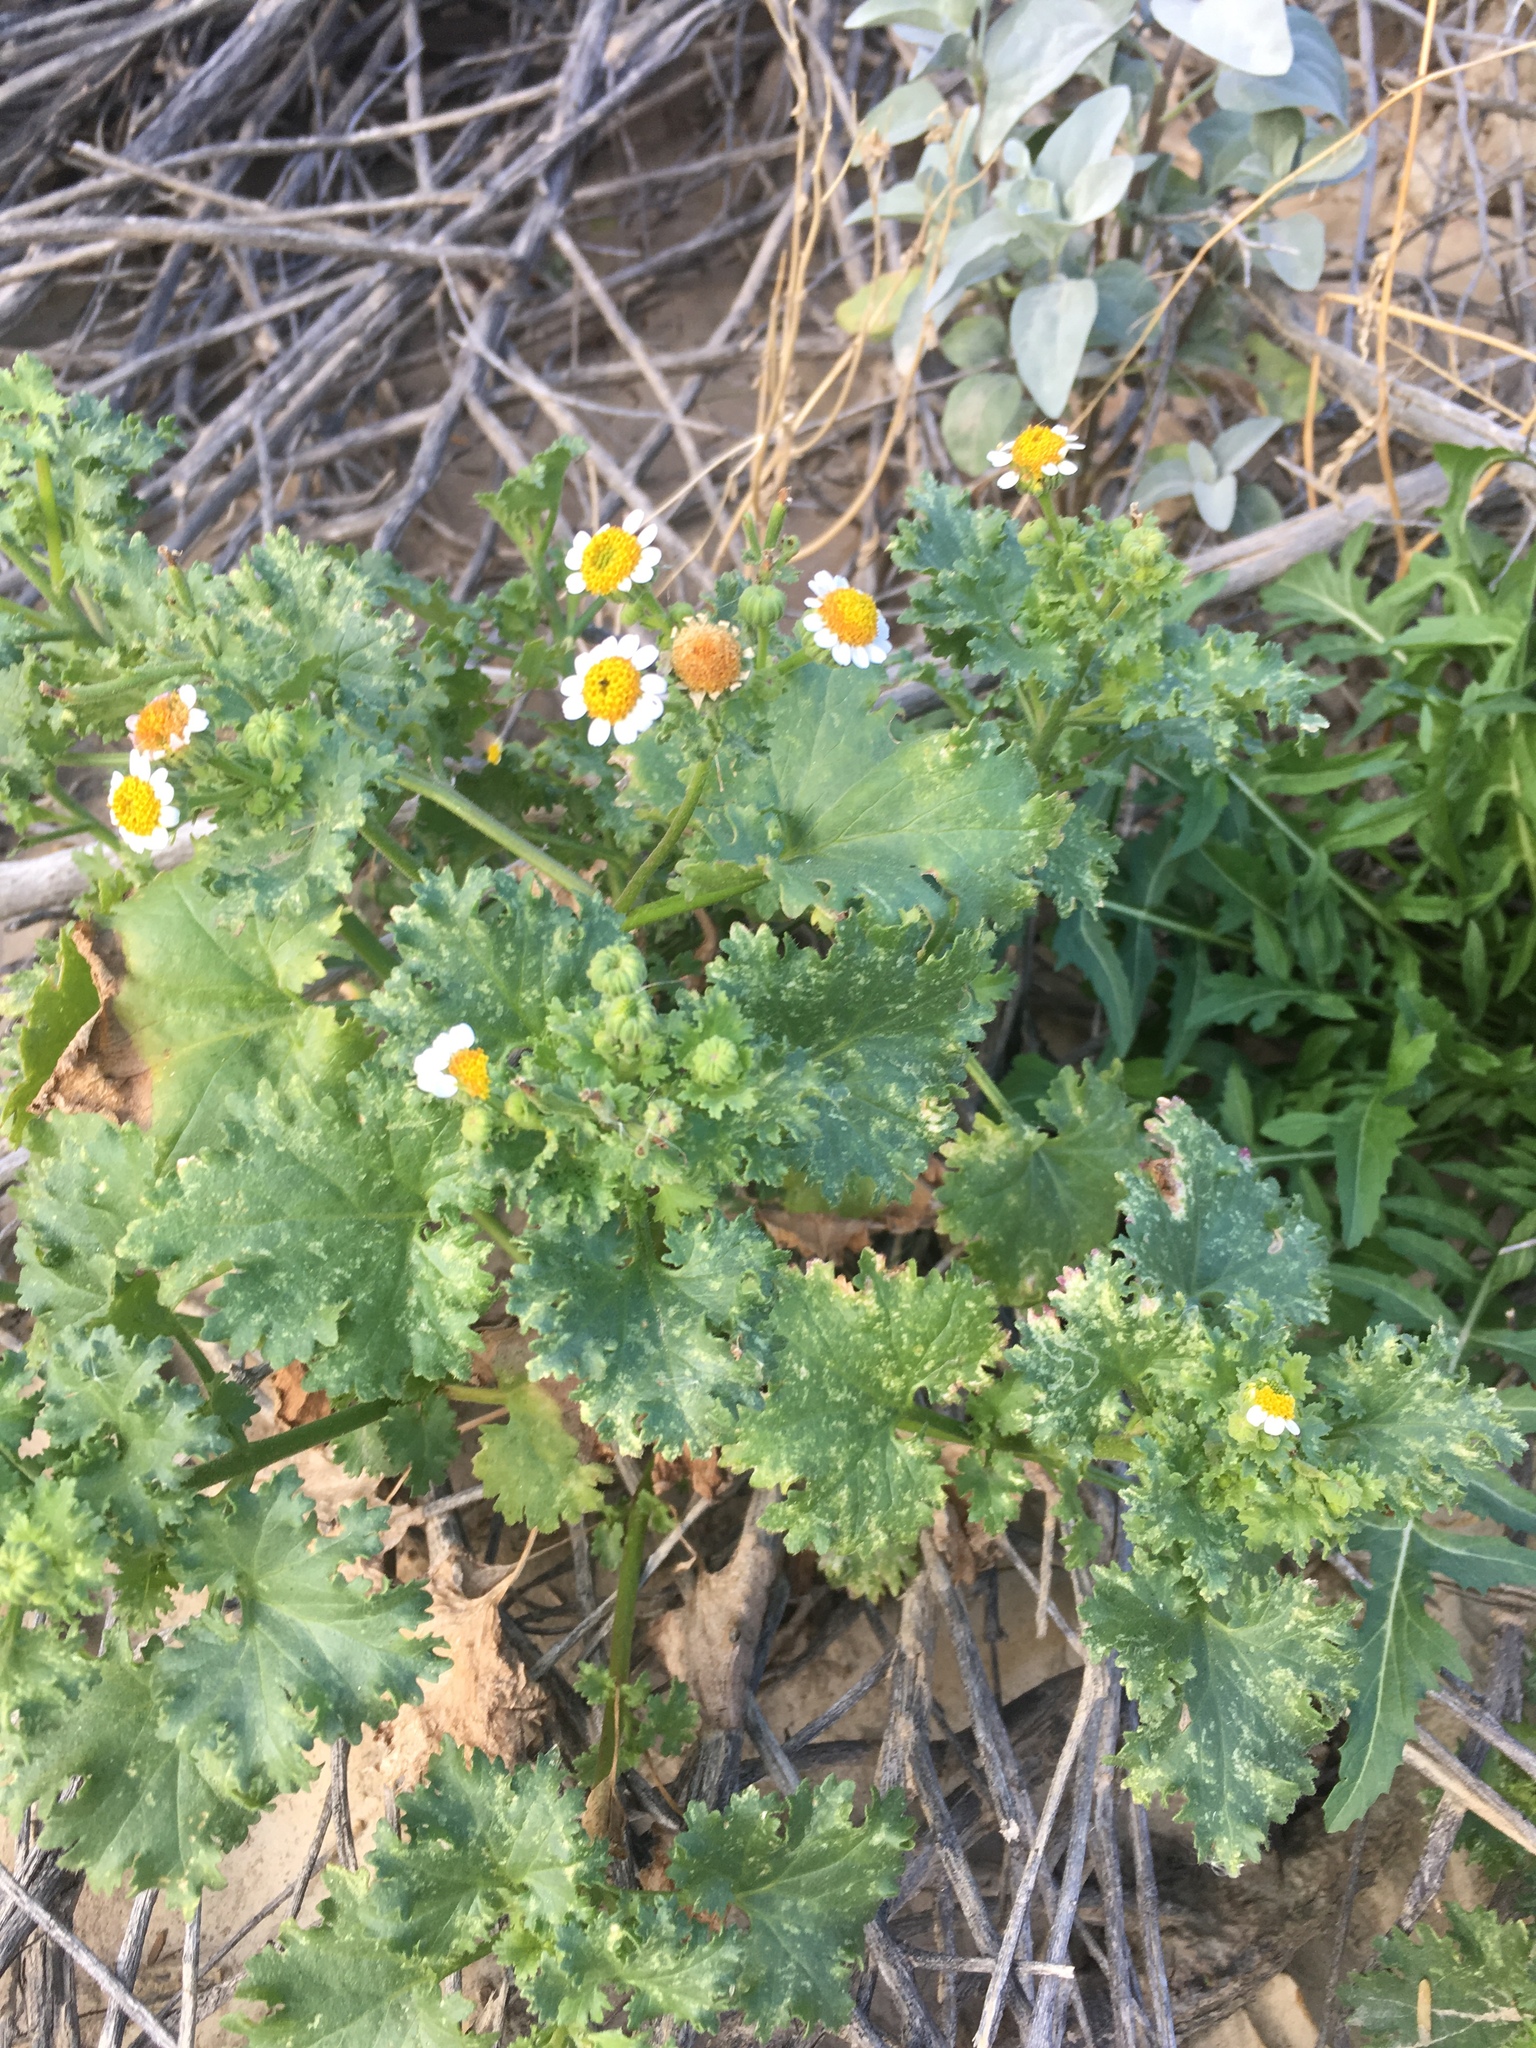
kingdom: Plantae
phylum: Tracheophyta
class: Magnoliopsida
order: Asterales
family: Asteraceae
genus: Laphamia
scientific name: Laphamia emoryi
